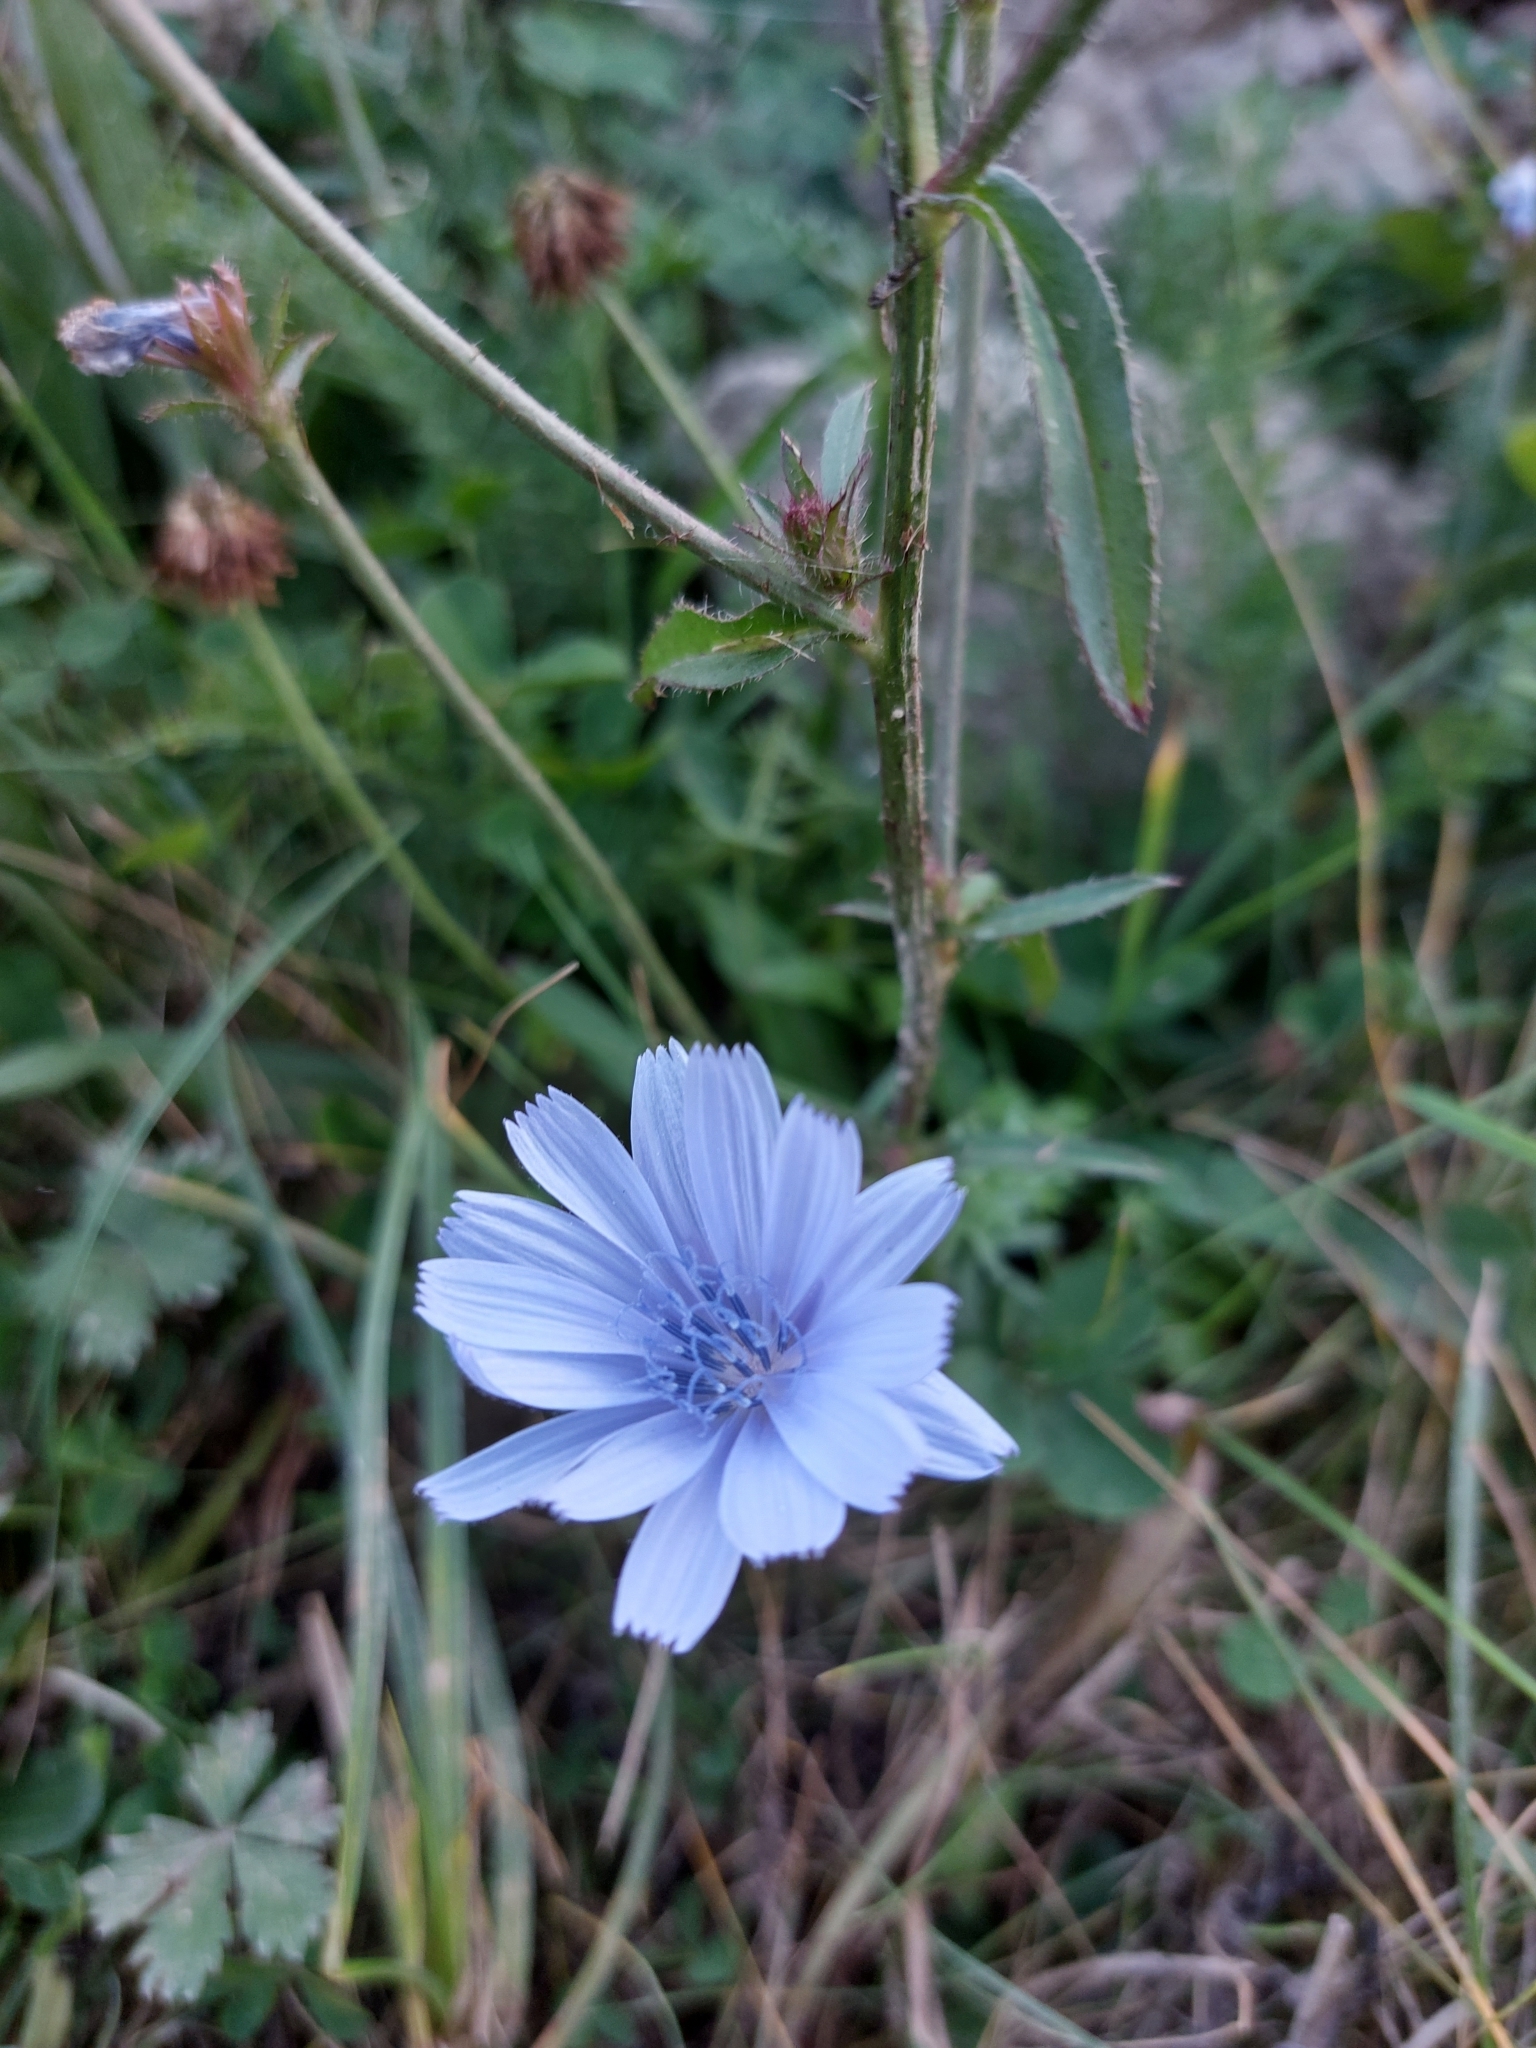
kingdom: Plantae
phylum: Tracheophyta
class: Magnoliopsida
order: Asterales
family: Asteraceae
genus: Cichorium
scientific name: Cichorium intybus
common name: Chicory
